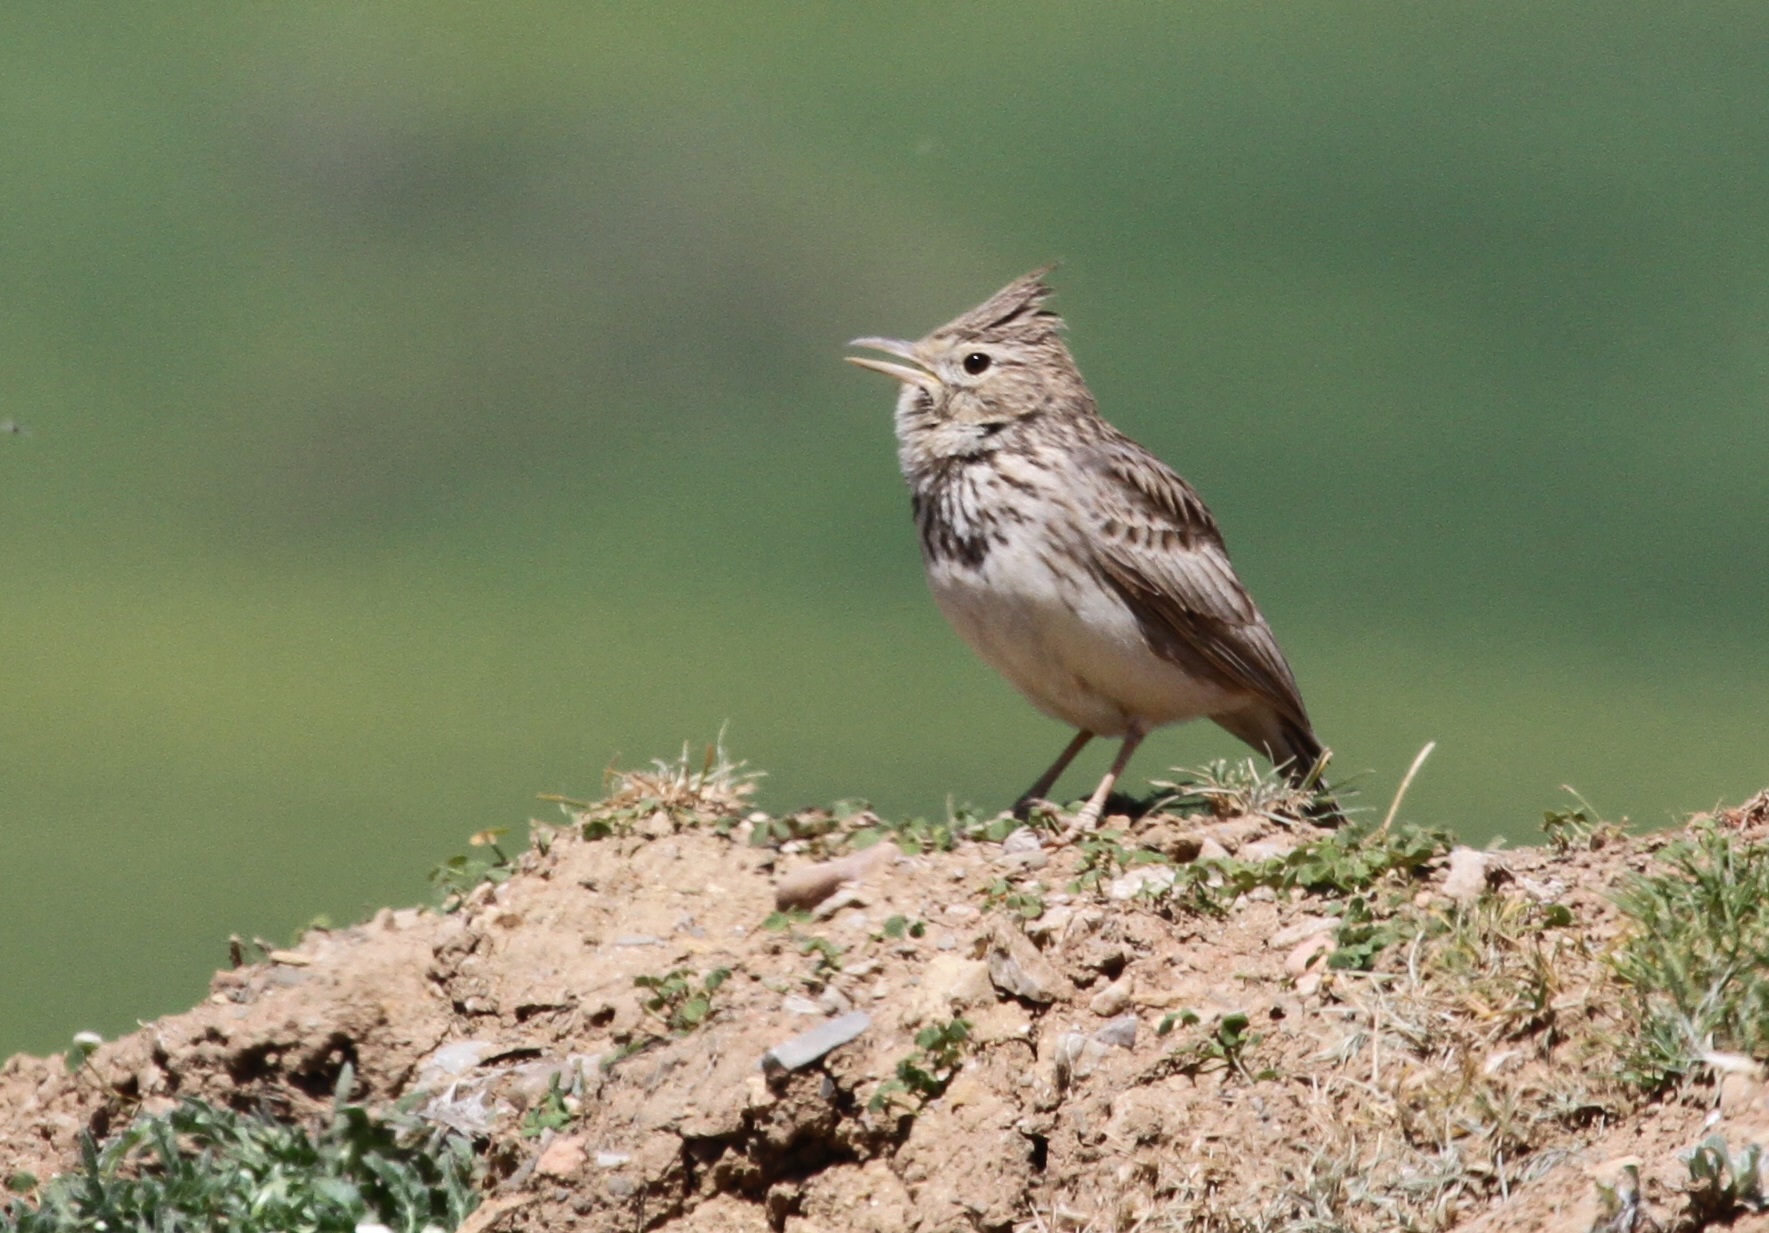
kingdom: Animalia
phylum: Chordata
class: Aves
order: Passeriformes
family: Alaudidae
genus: Galerida
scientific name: Galerida theklae
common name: Thekla lark
